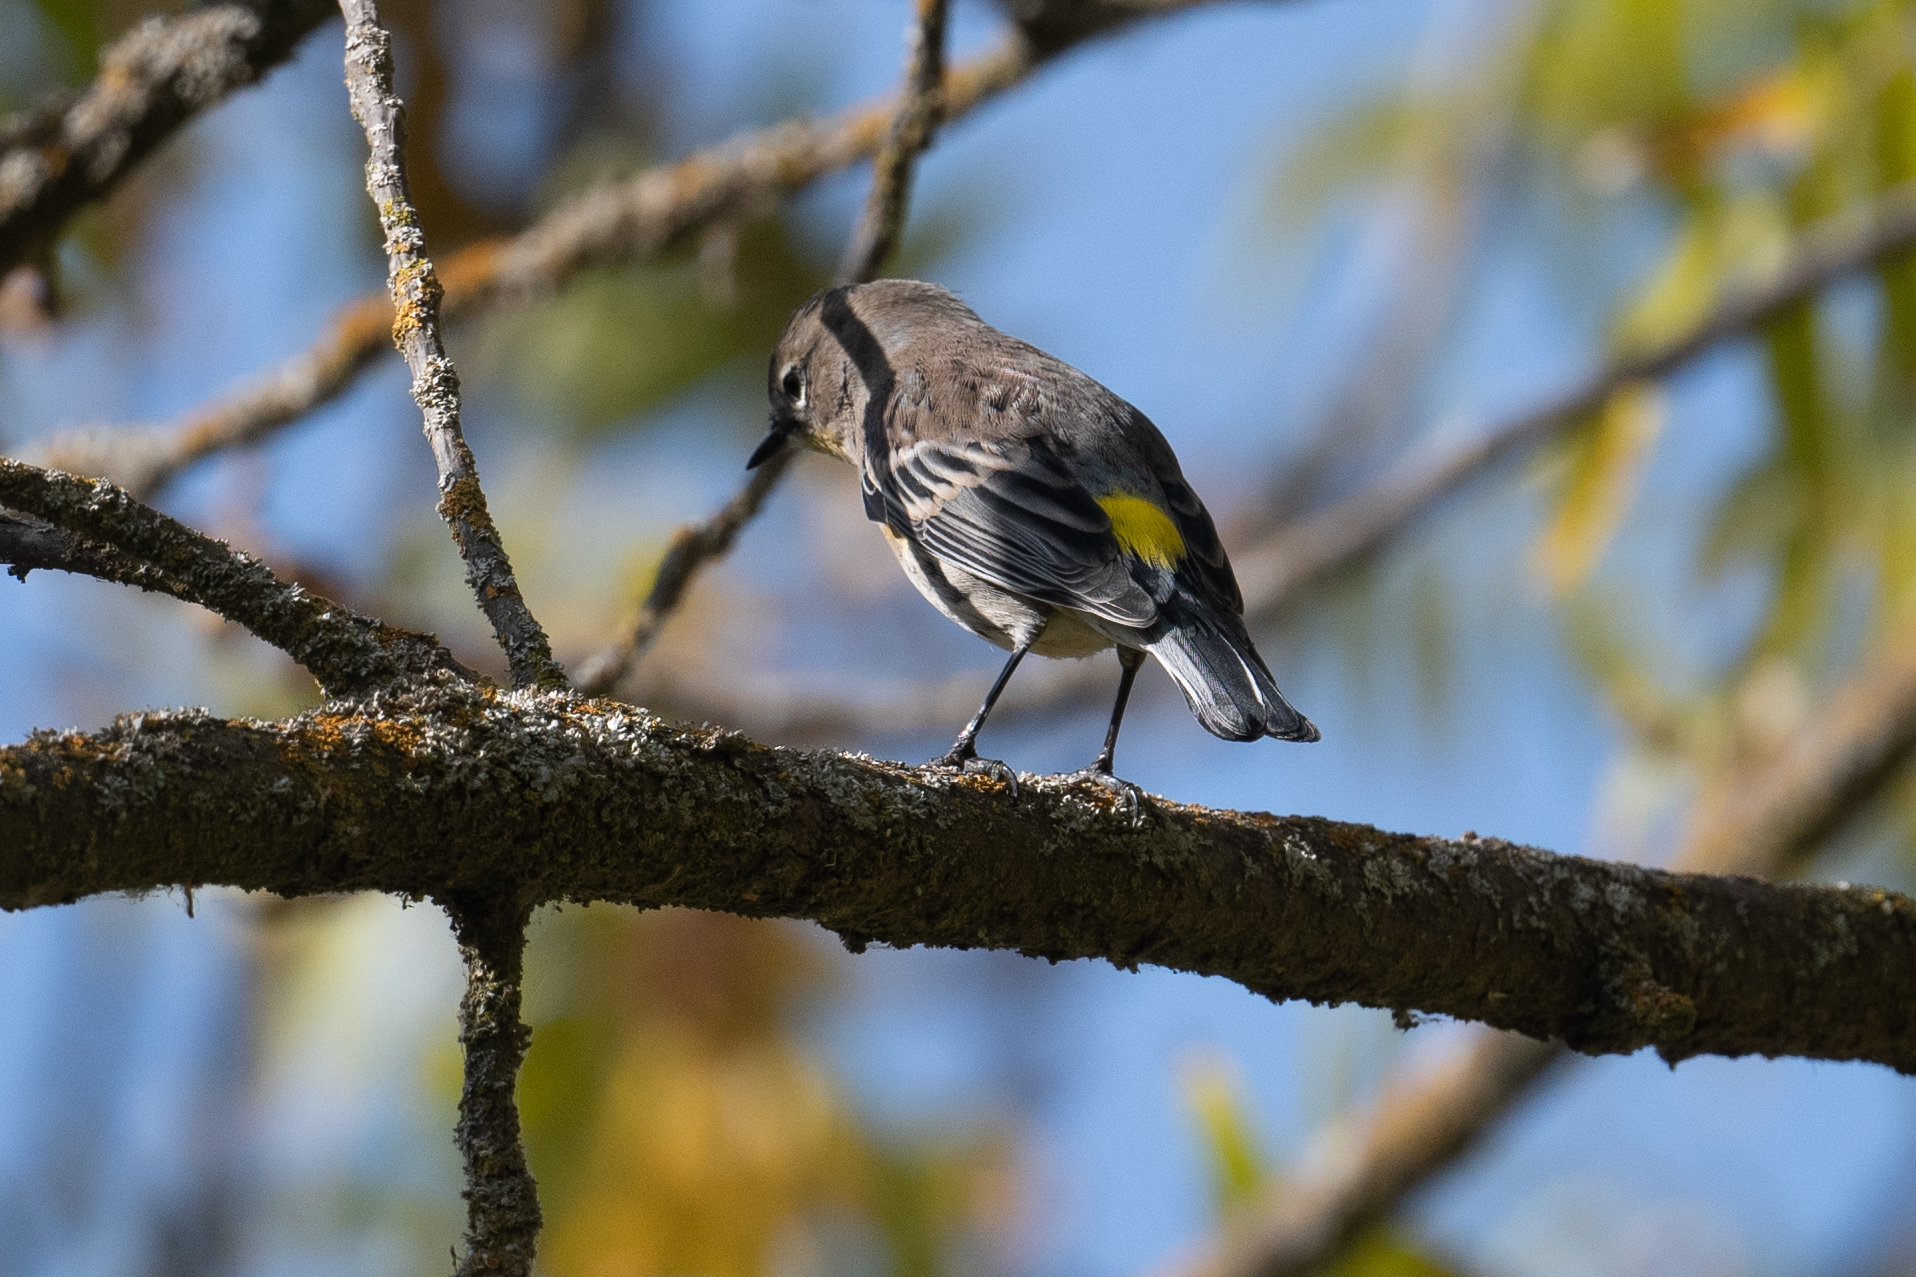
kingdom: Animalia
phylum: Chordata
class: Aves
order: Passeriformes
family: Parulidae
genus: Setophaga
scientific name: Setophaga coronata
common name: Myrtle warbler
